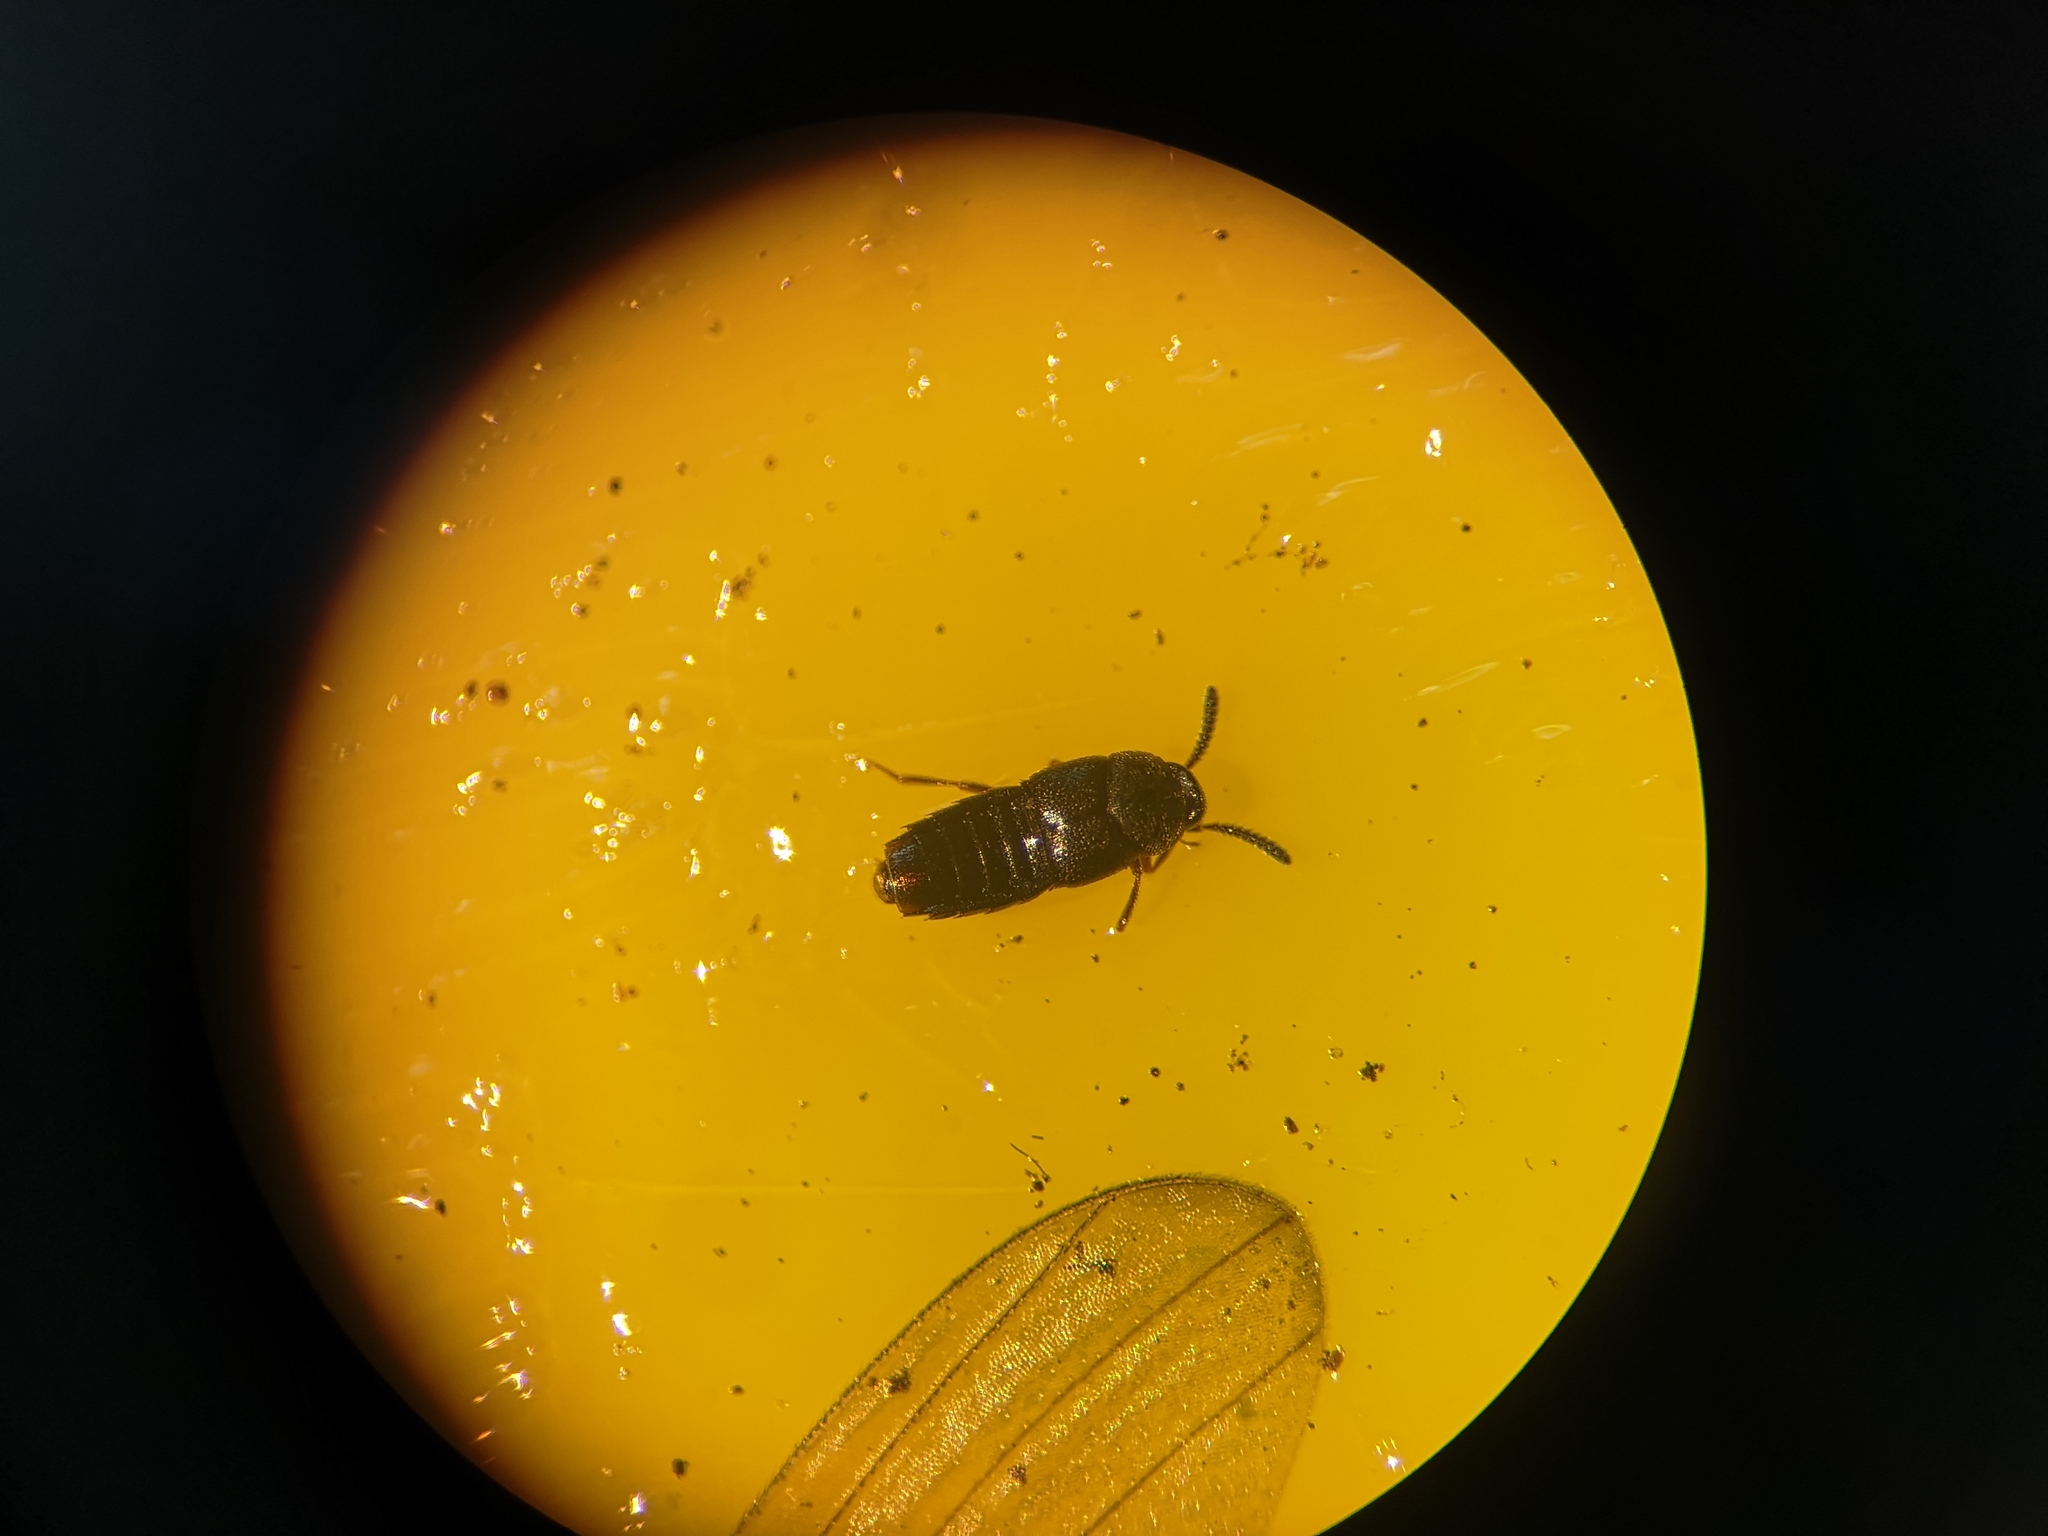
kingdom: Animalia
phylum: Arthropoda
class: Insecta
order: Coleoptera
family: Staphylinidae
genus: Aleochara
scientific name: Aleochara morion
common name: Staph beetle
